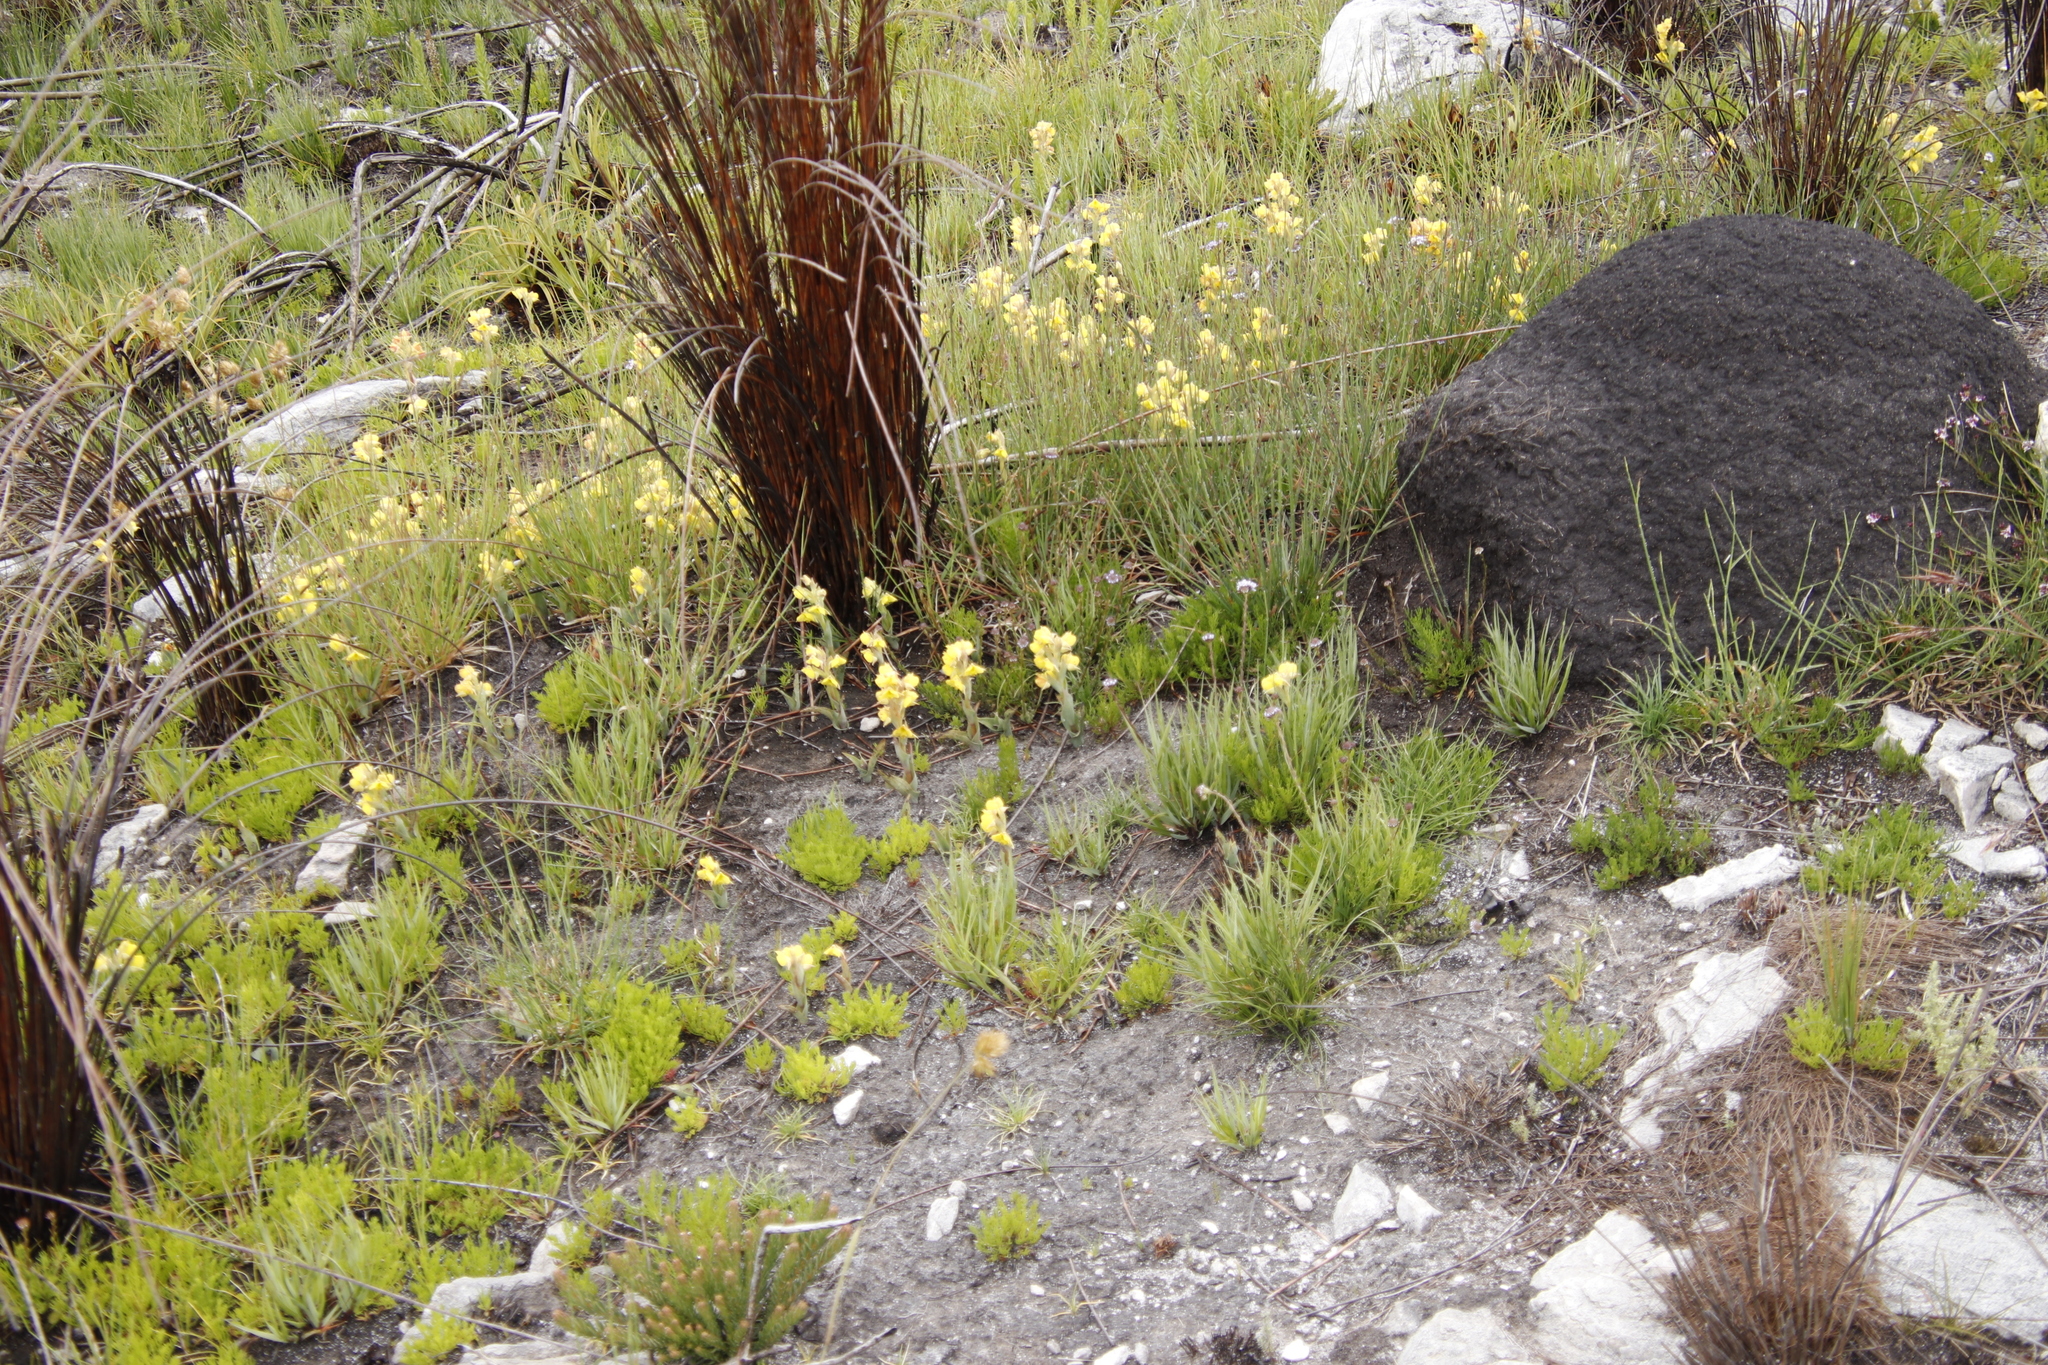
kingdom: Plantae
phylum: Tracheophyta
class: Liliopsida
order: Asparagales
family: Orchidaceae
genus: Pterygodium
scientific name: Pterygodium acutifolium
